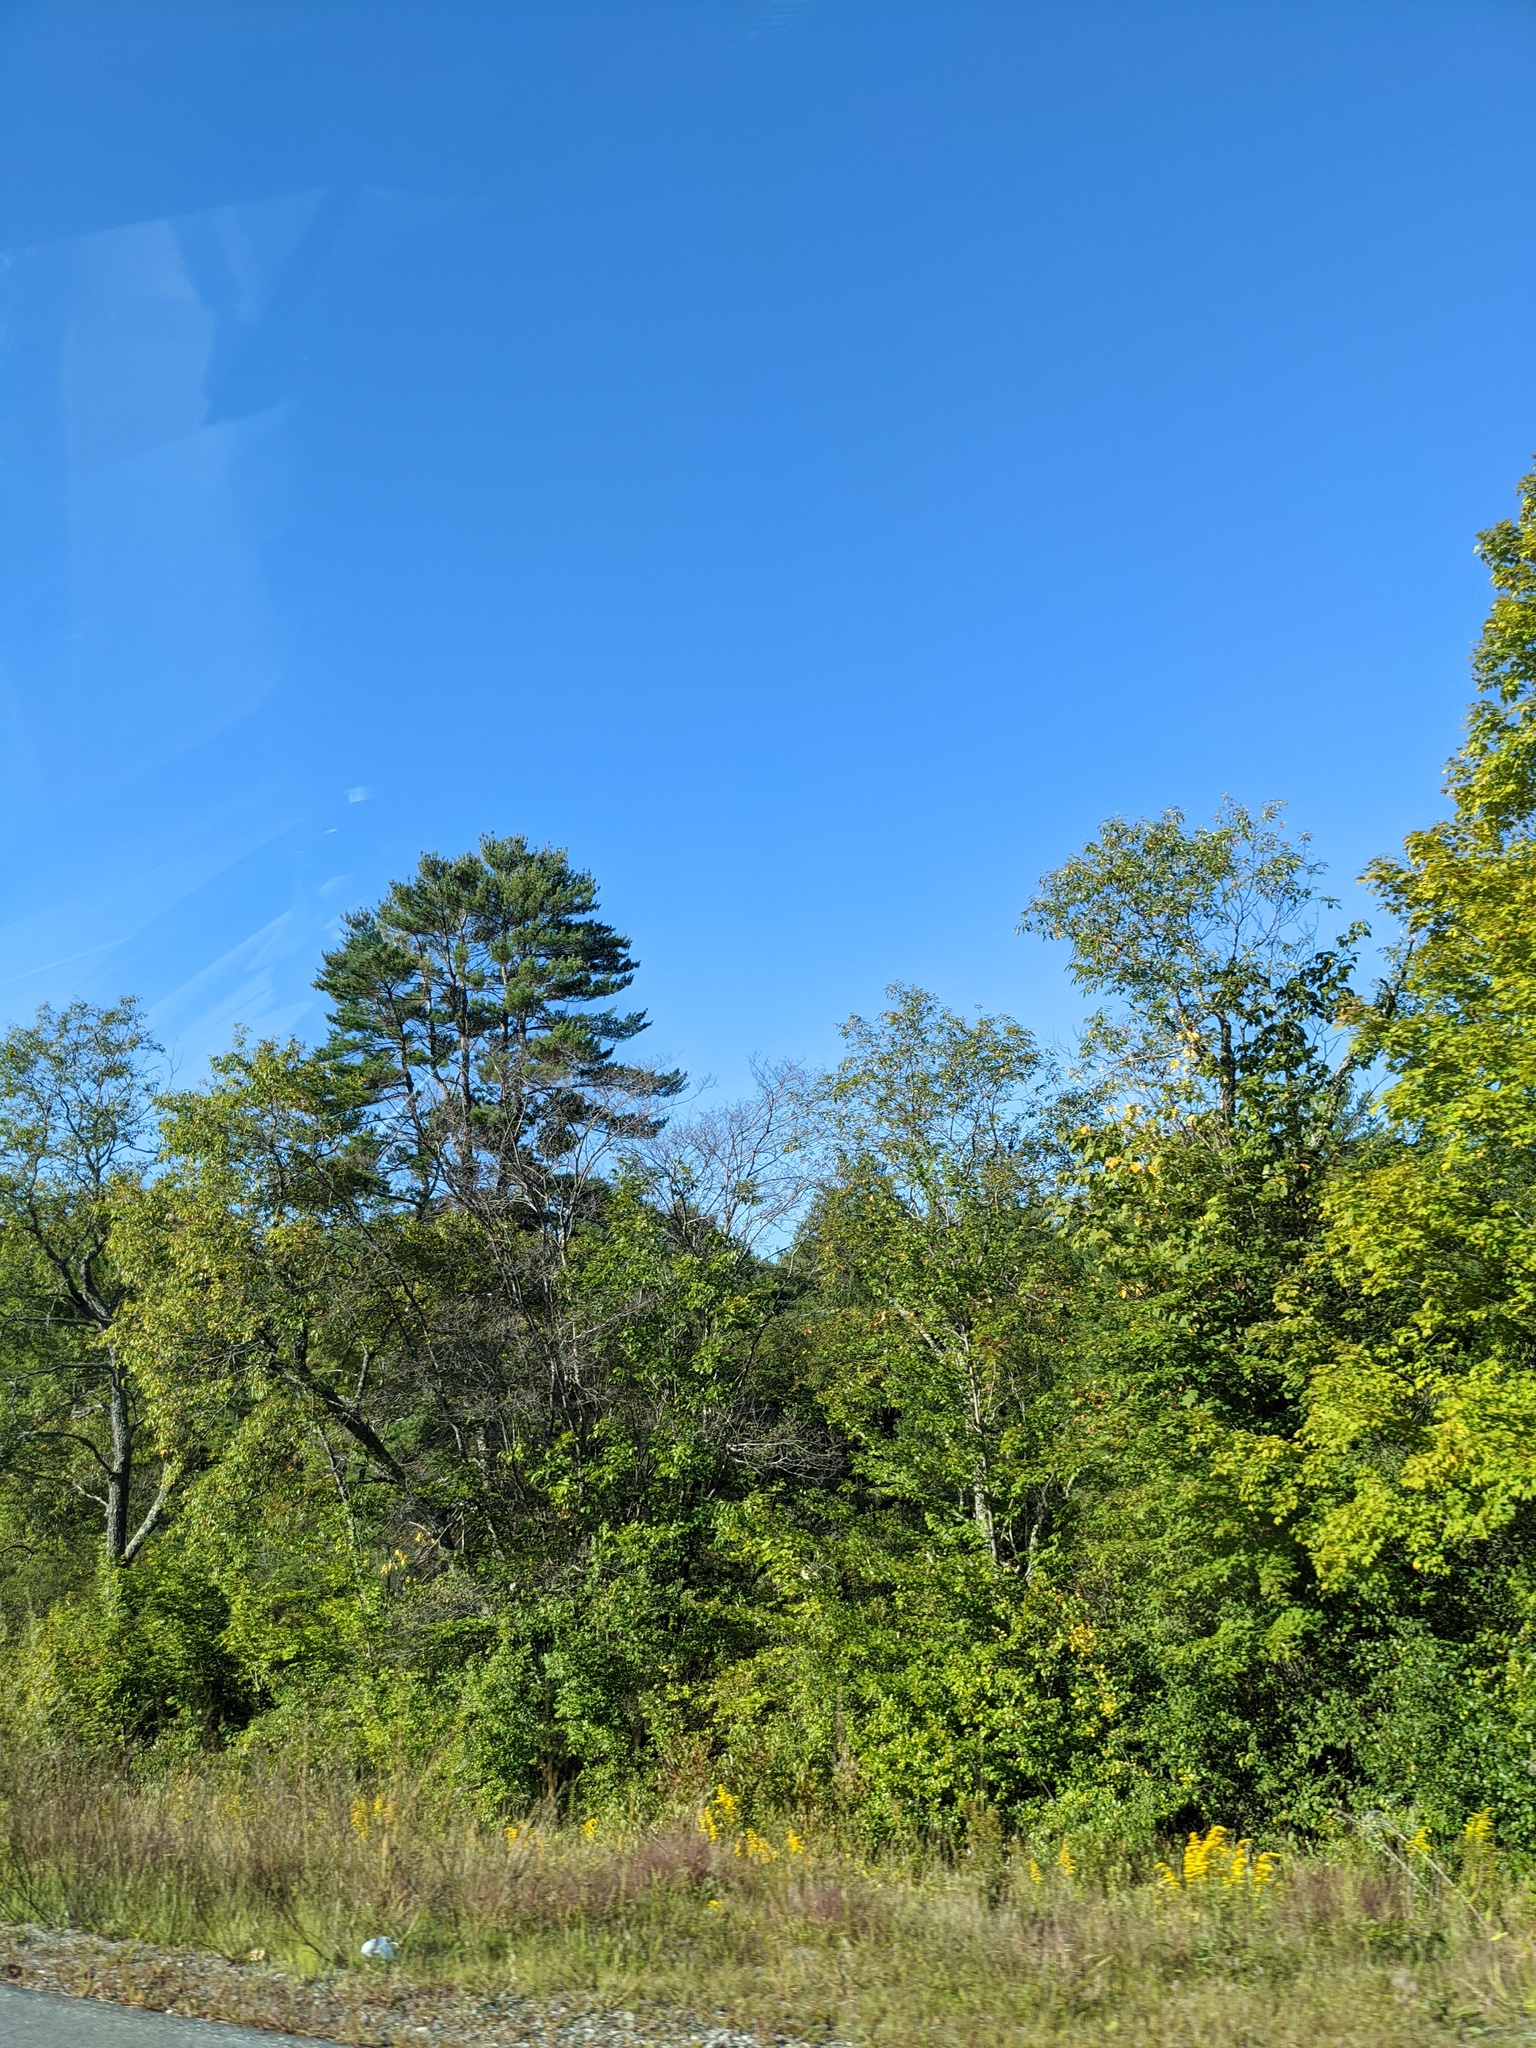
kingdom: Plantae
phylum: Tracheophyta
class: Pinopsida
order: Pinales
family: Pinaceae
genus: Pinus
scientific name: Pinus strobus
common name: Weymouth pine
